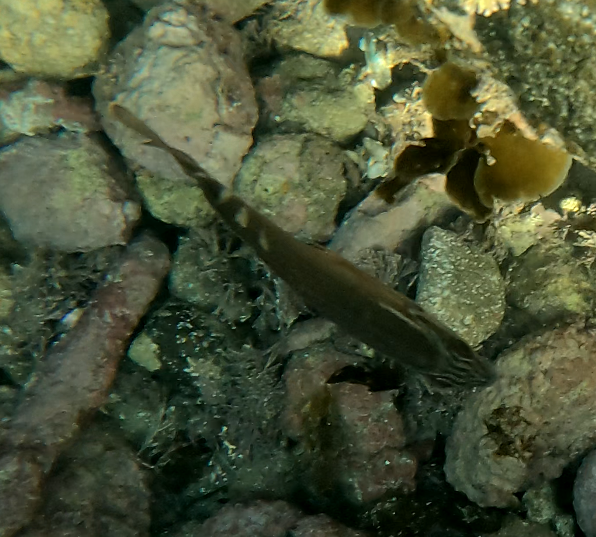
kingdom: Animalia
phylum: Chordata
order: Perciformes
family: Latridae
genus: Morwong
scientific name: Morwong fuscus
